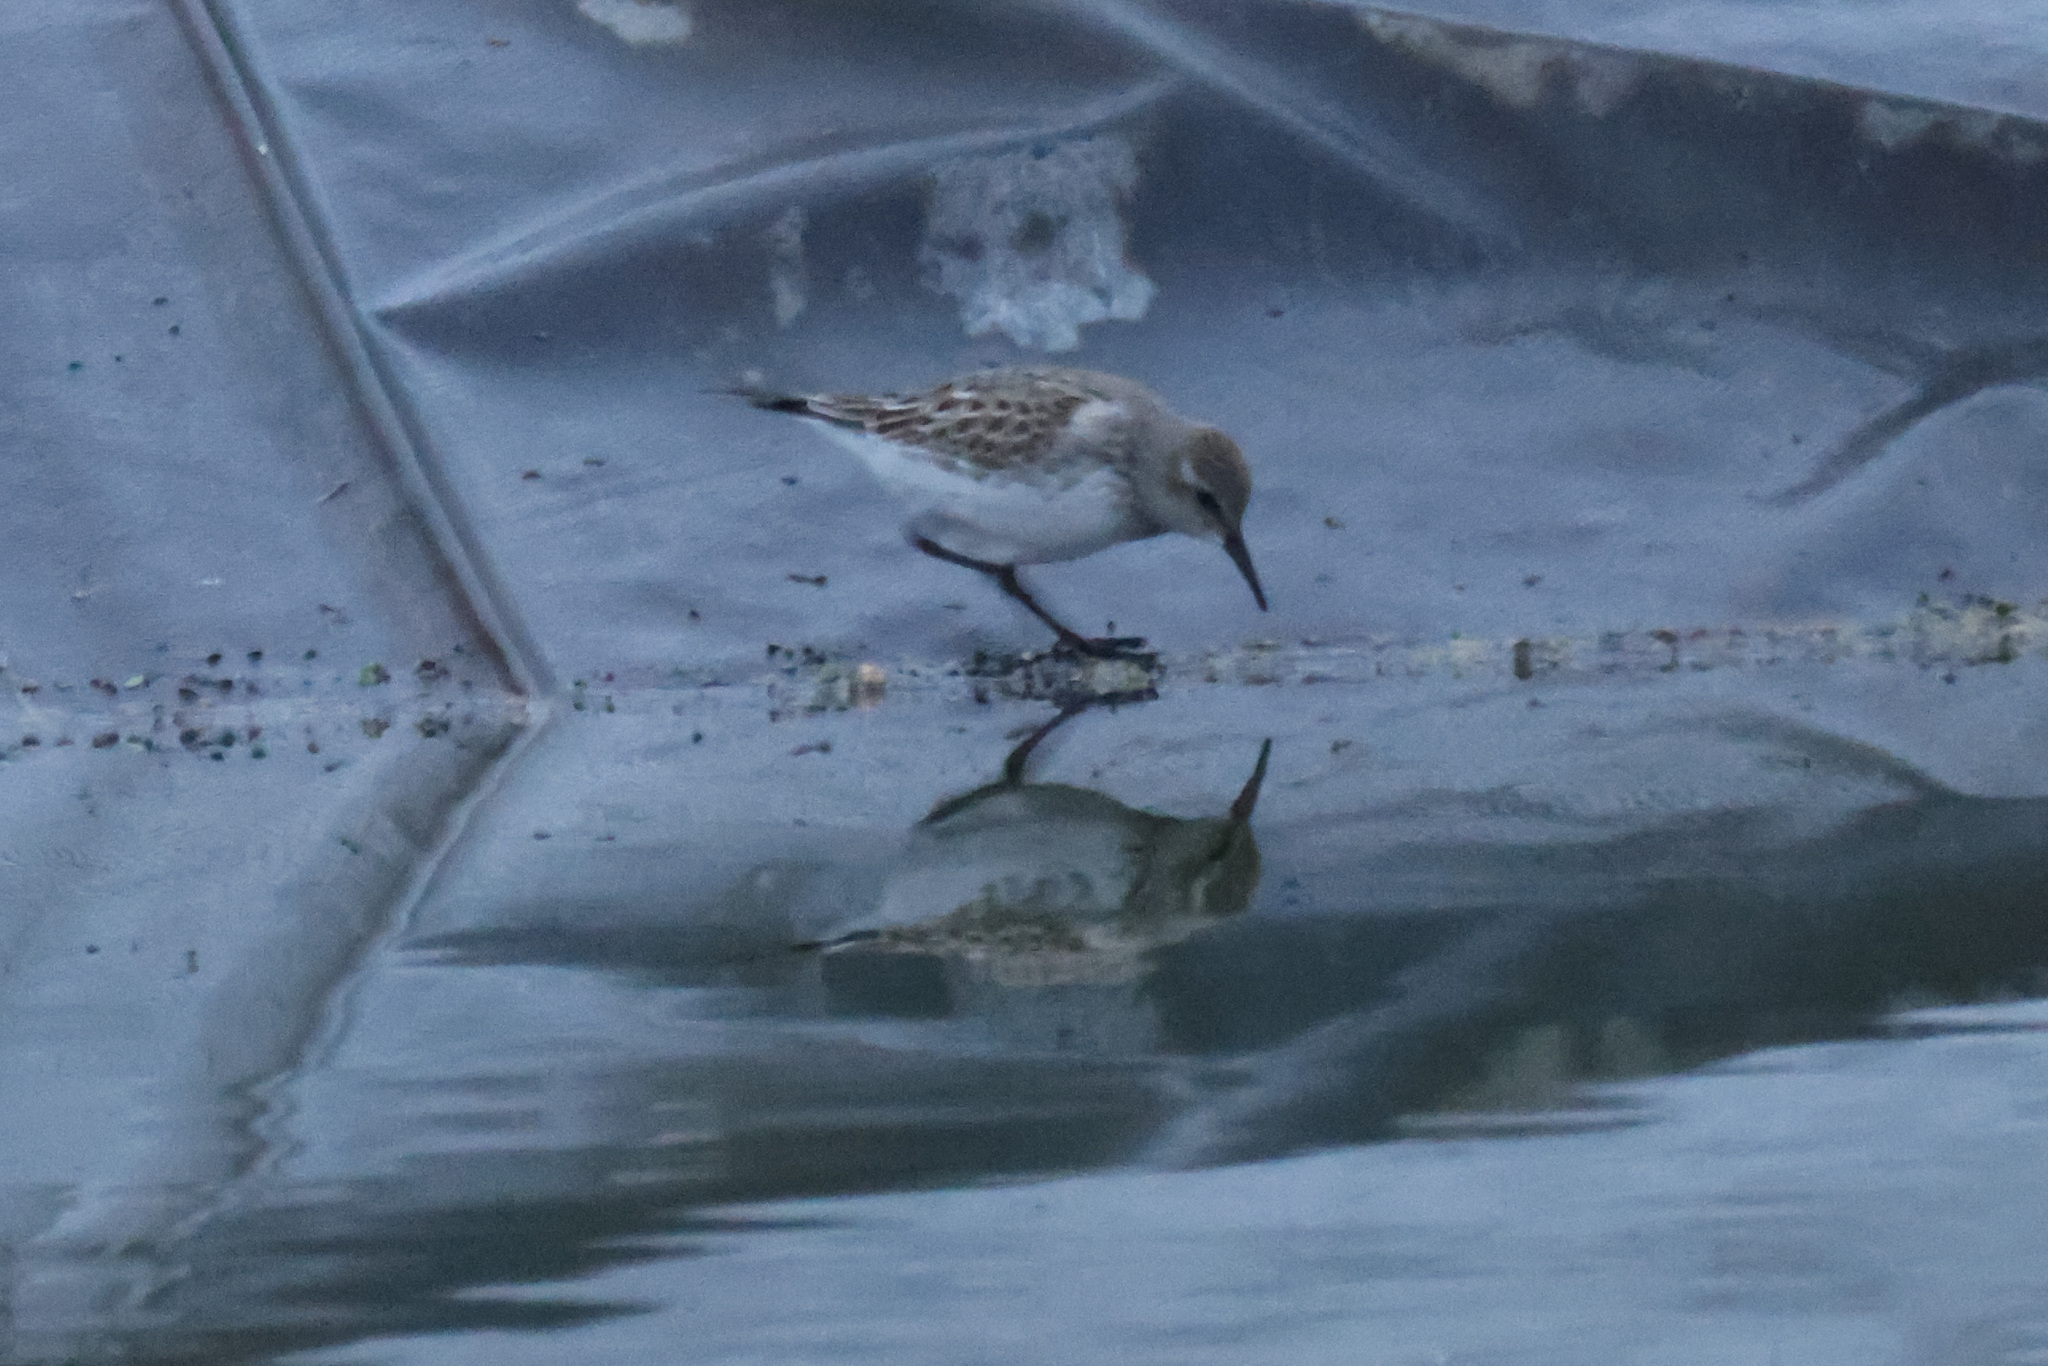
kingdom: Animalia
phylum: Chordata
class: Aves
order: Charadriiformes
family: Scolopacidae
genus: Calidris
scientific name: Calidris fuscicollis
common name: White-rumped sandpiper
